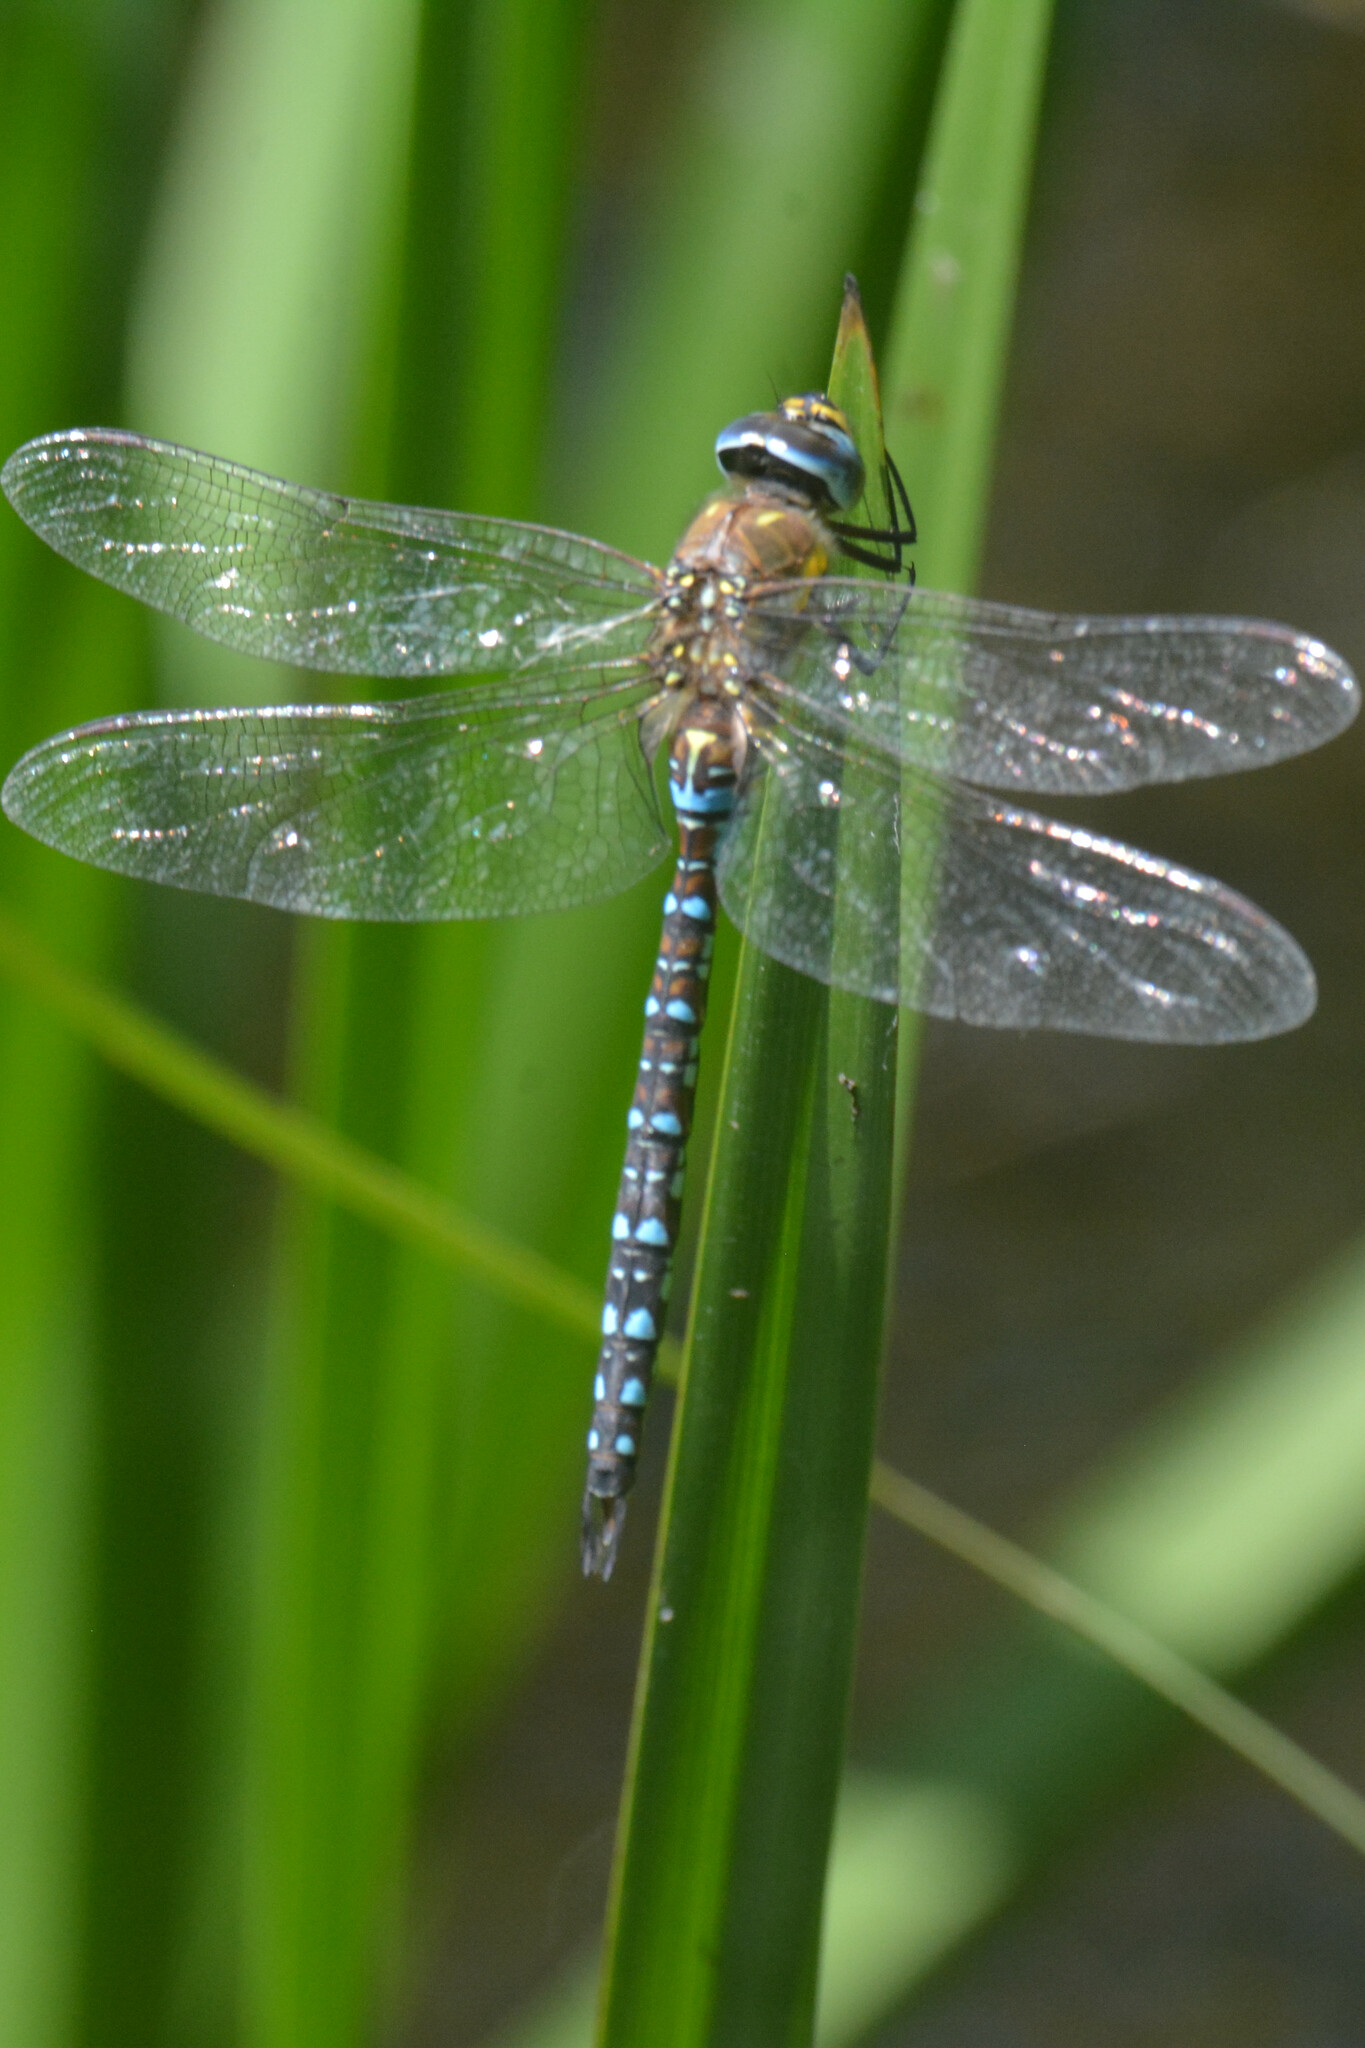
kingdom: Animalia
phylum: Arthropoda
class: Insecta
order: Odonata
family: Aeshnidae
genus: Aeshna
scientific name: Aeshna mixta
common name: Migrant hawker
